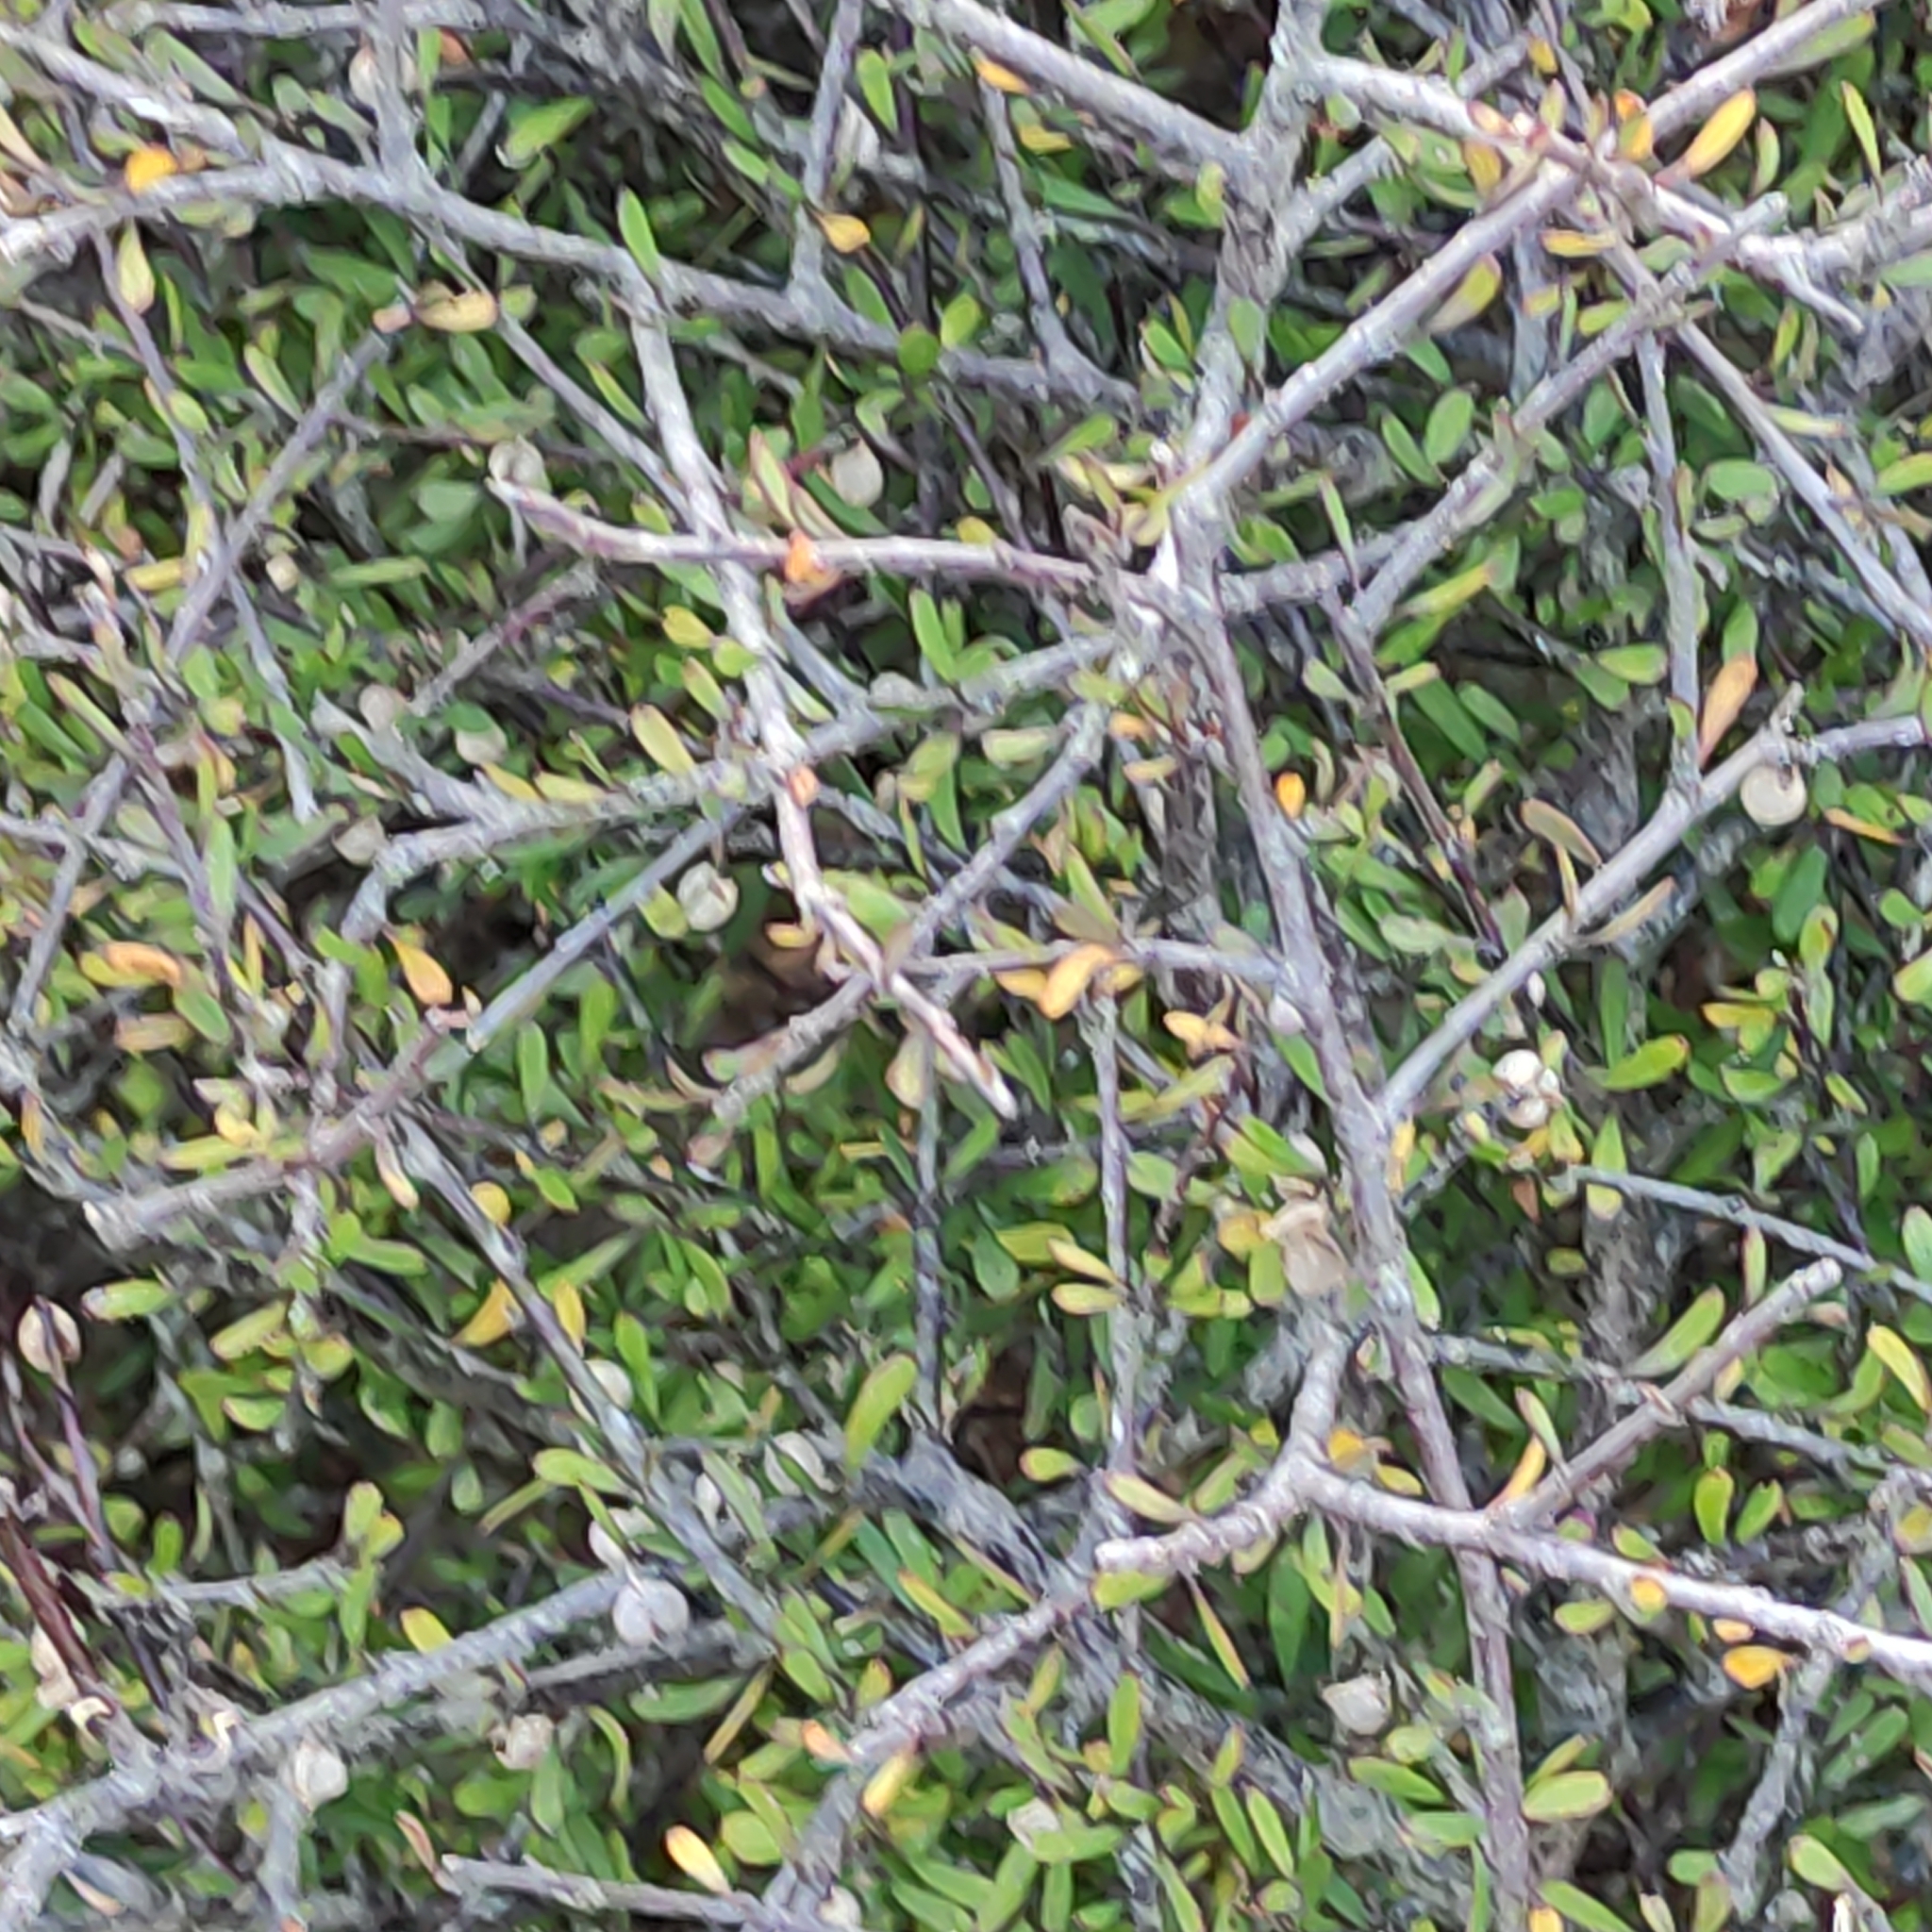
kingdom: Plantae
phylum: Tracheophyta
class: Magnoliopsida
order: Malvales
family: Malvaceae
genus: Plagianthus
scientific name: Plagianthus divaricatus
